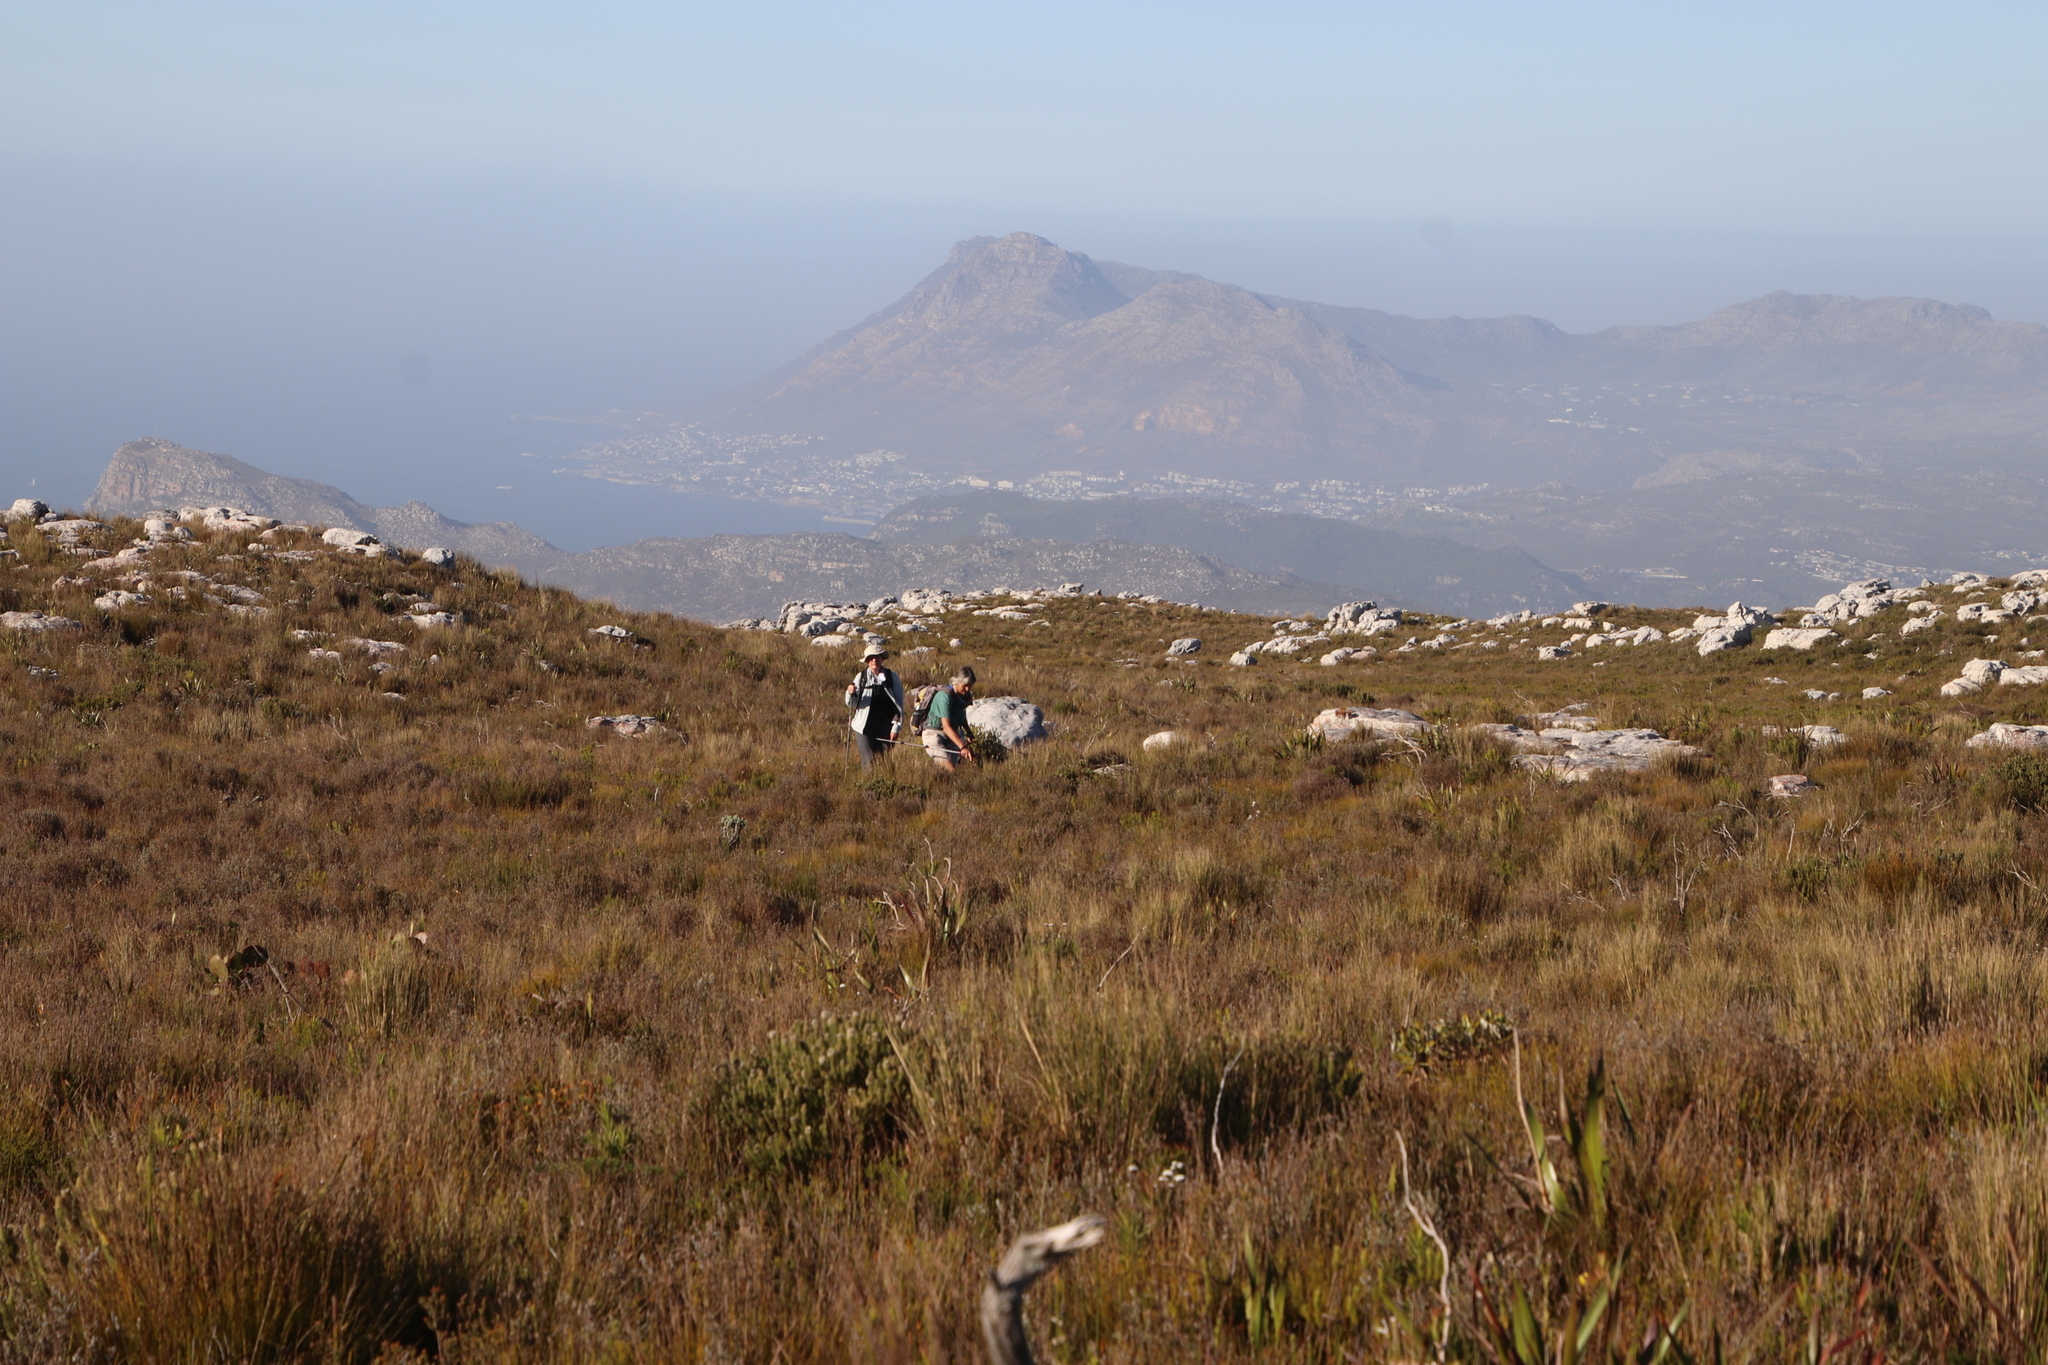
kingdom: Plantae
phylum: Tracheophyta
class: Magnoliopsida
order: Lamiales
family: Stilbaceae
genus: Stilbe
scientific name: Stilbe vestita
